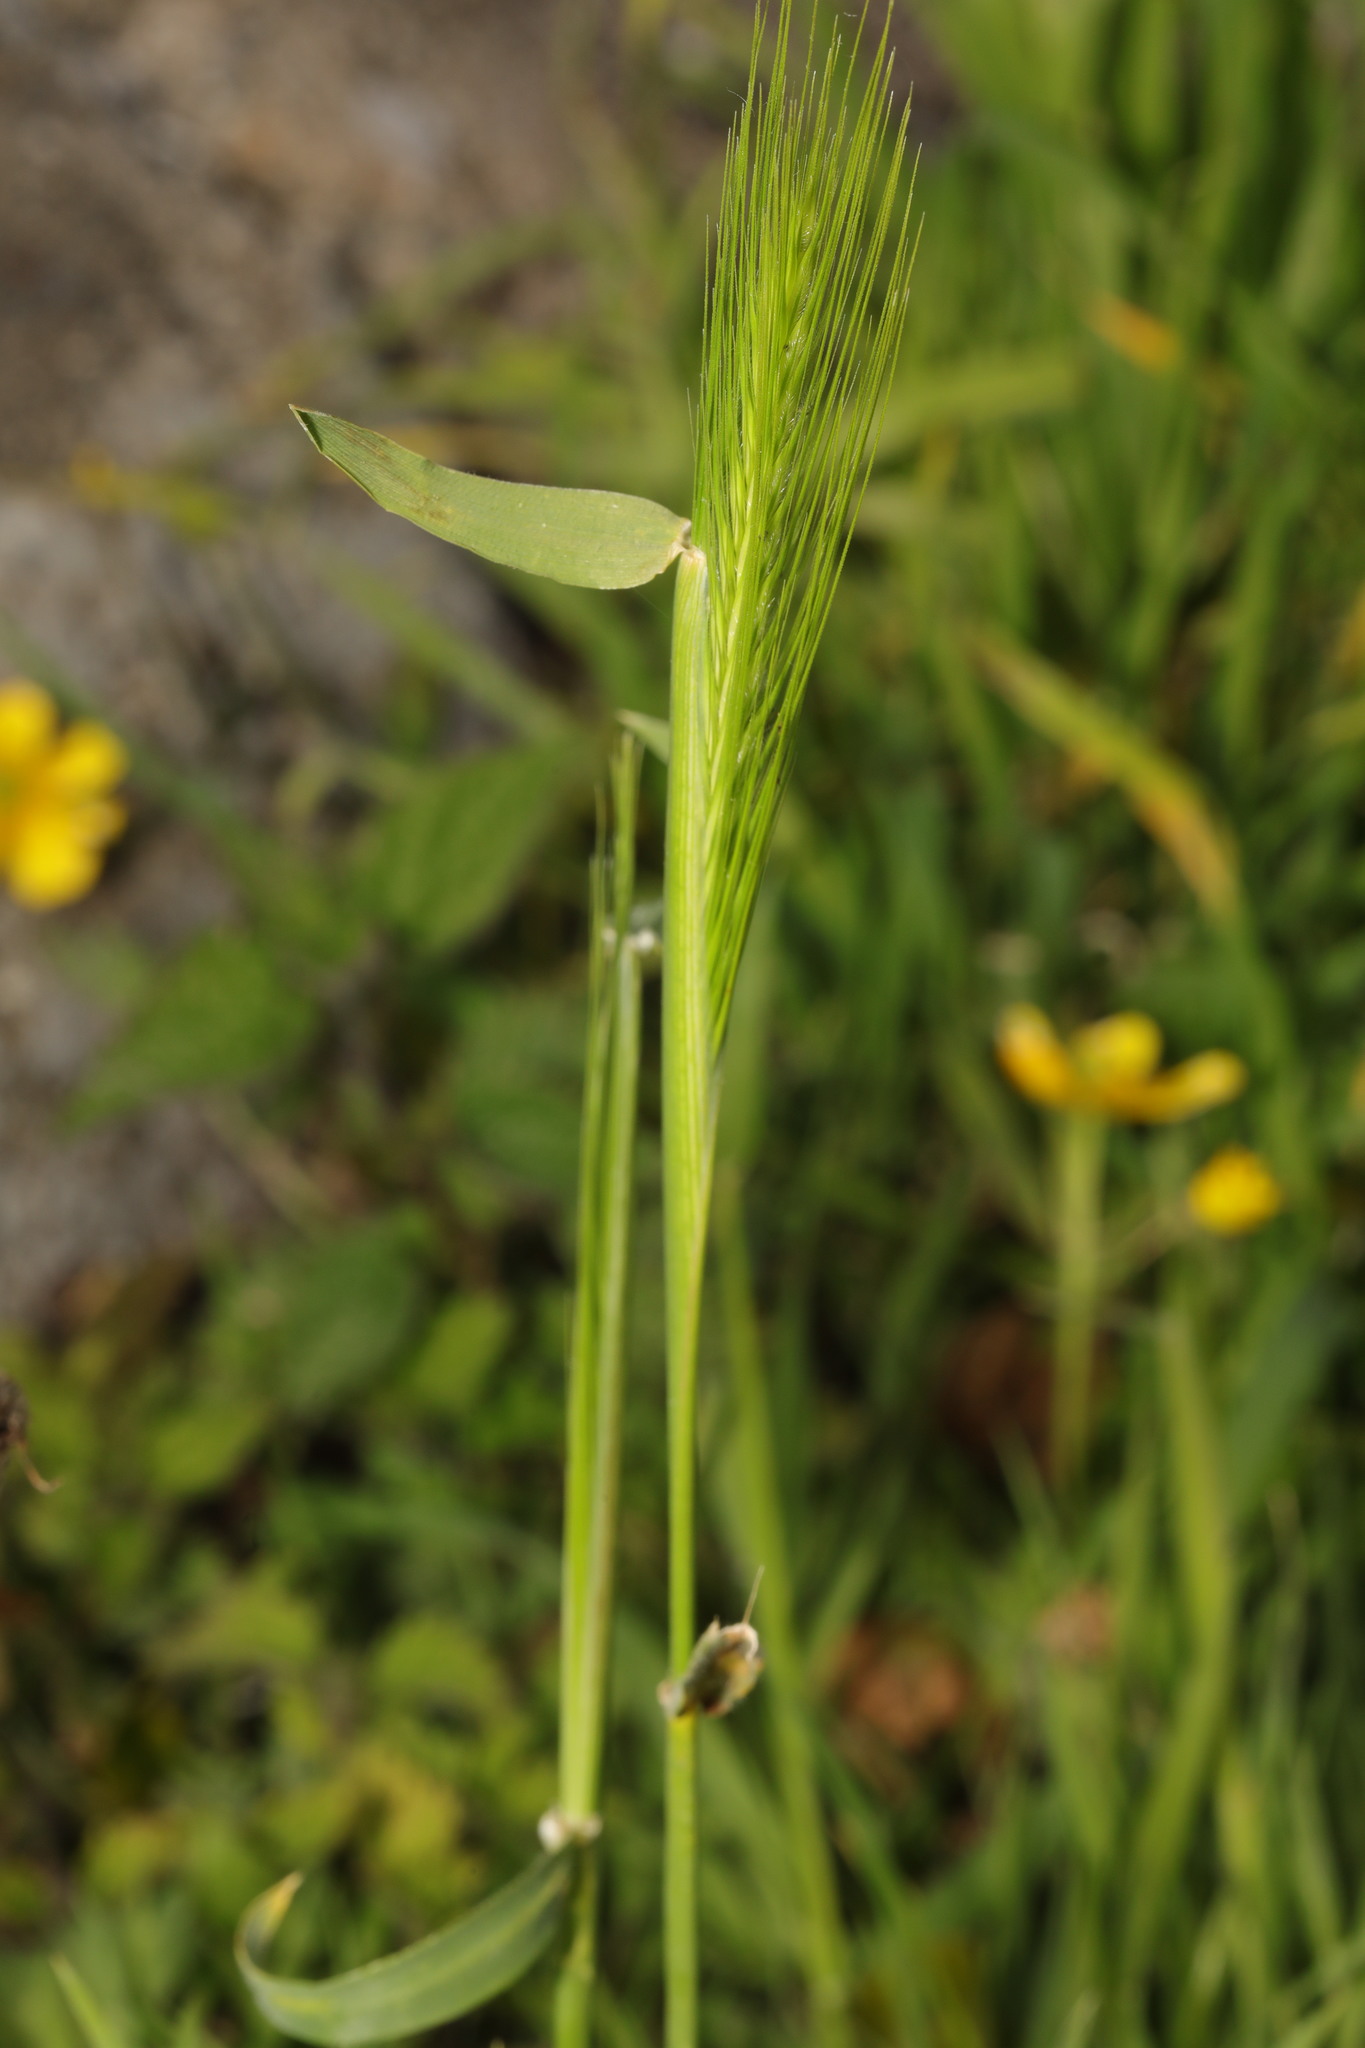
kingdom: Plantae
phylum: Tracheophyta
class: Liliopsida
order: Poales
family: Poaceae
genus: Hordeum
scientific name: Hordeum murinum
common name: Wall barley
